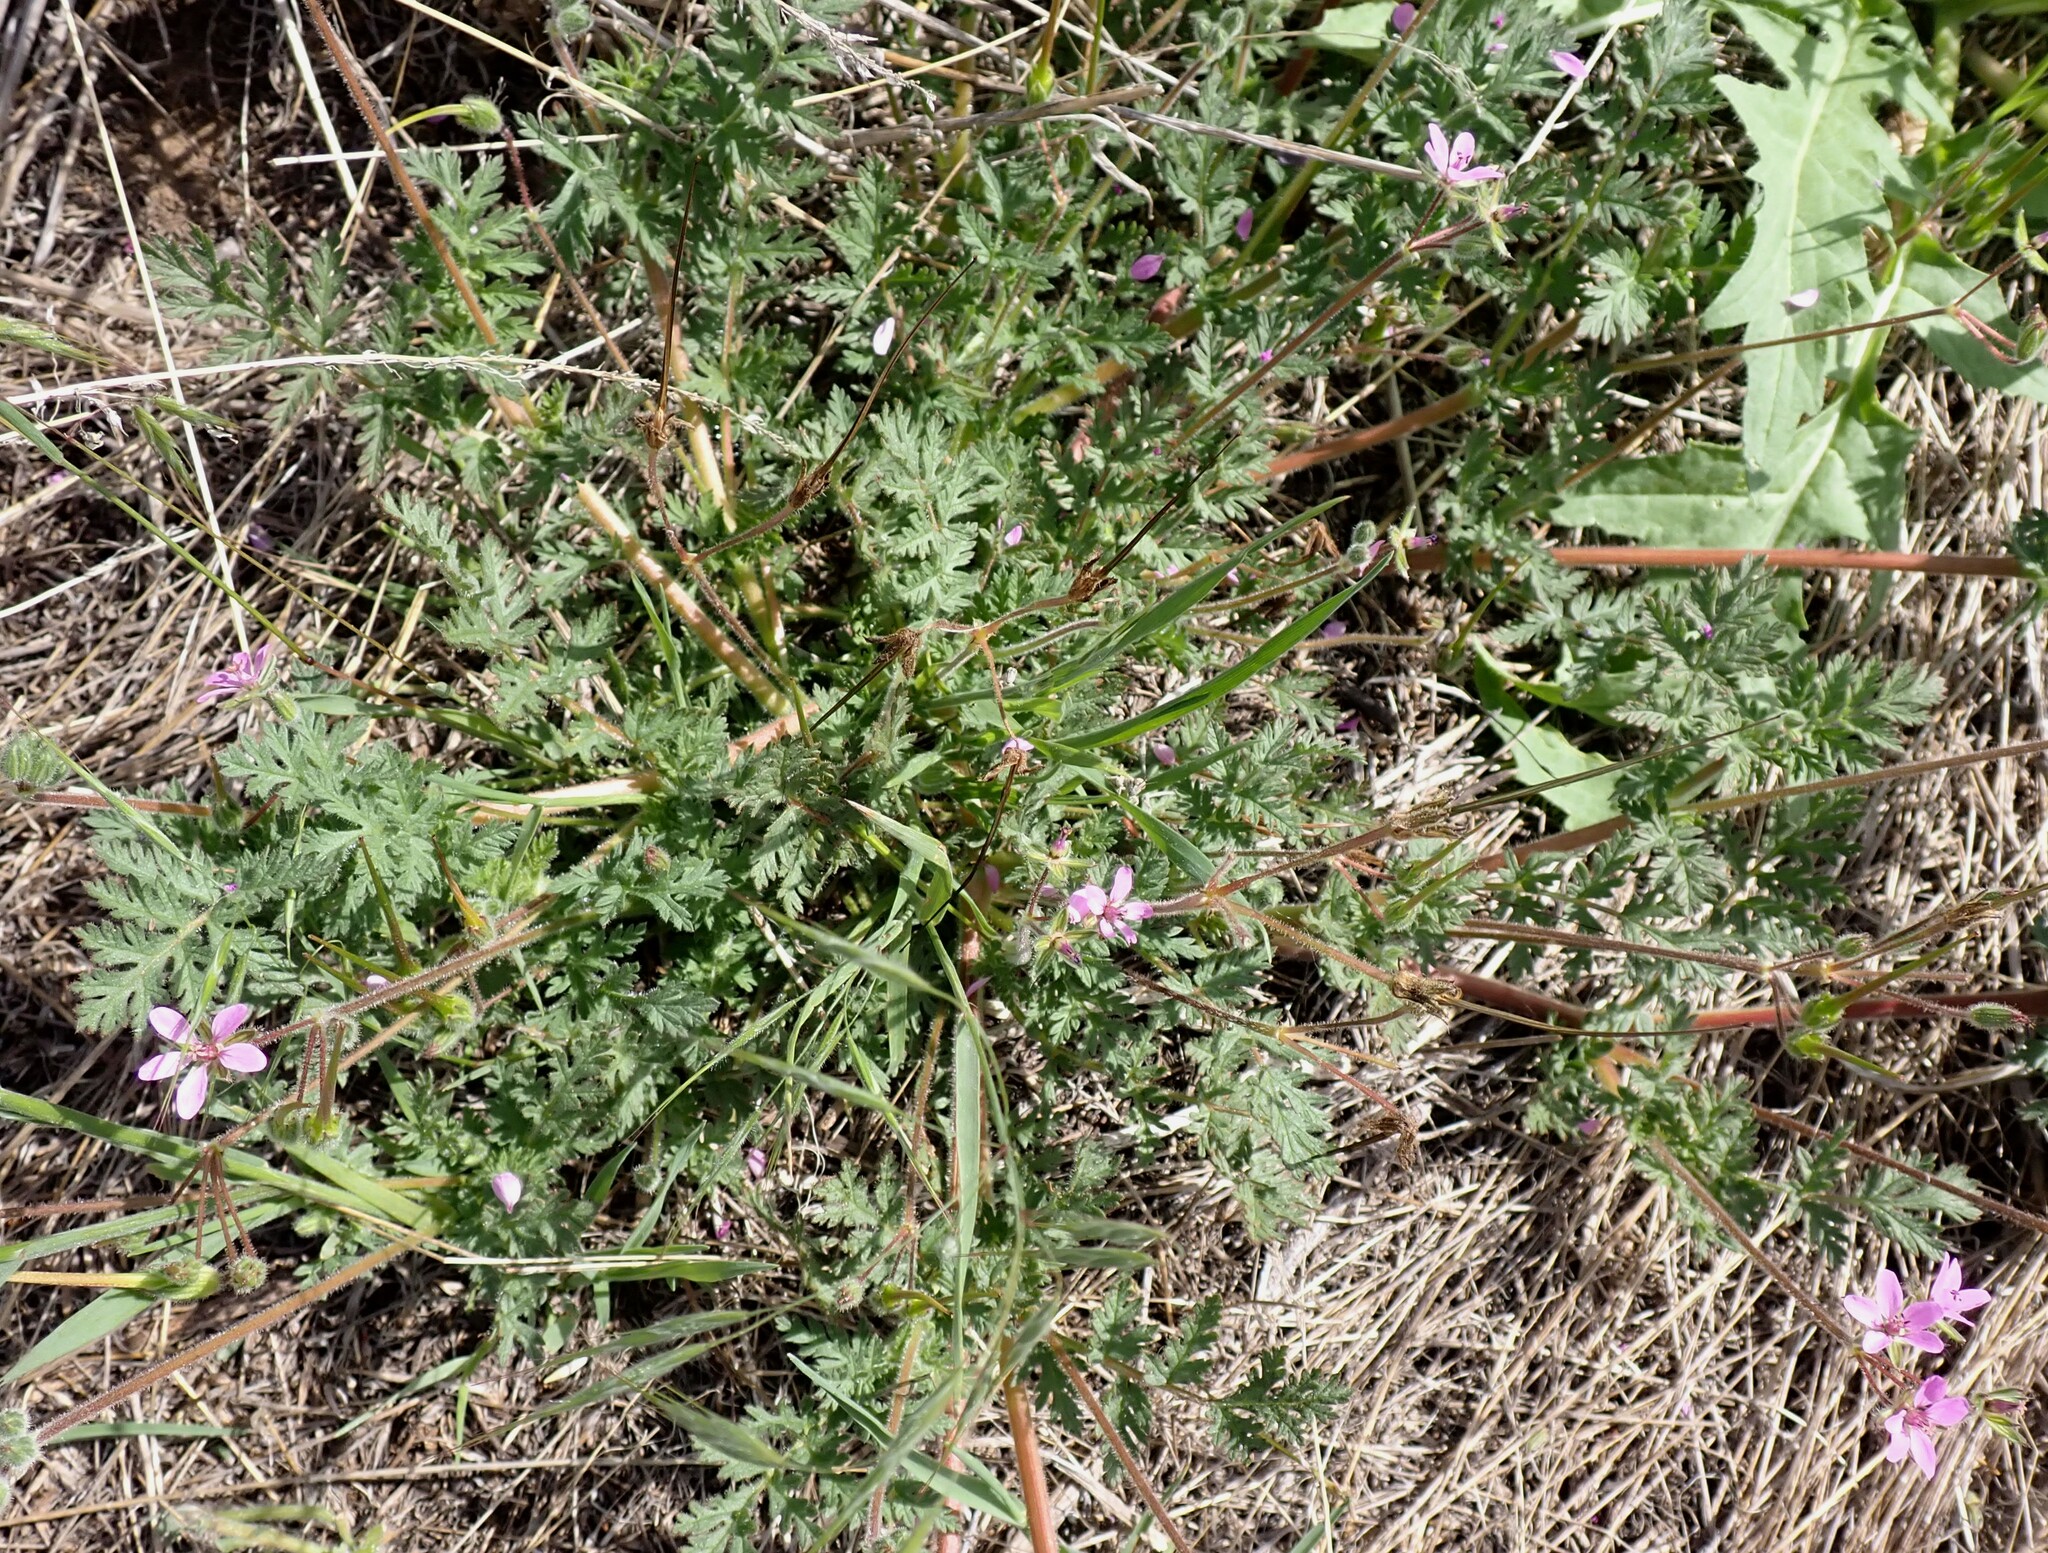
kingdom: Plantae
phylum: Tracheophyta
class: Magnoliopsida
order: Geraniales
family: Geraniaceae
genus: Erodium
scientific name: Erodium cicutarium
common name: Common stork's-bill
